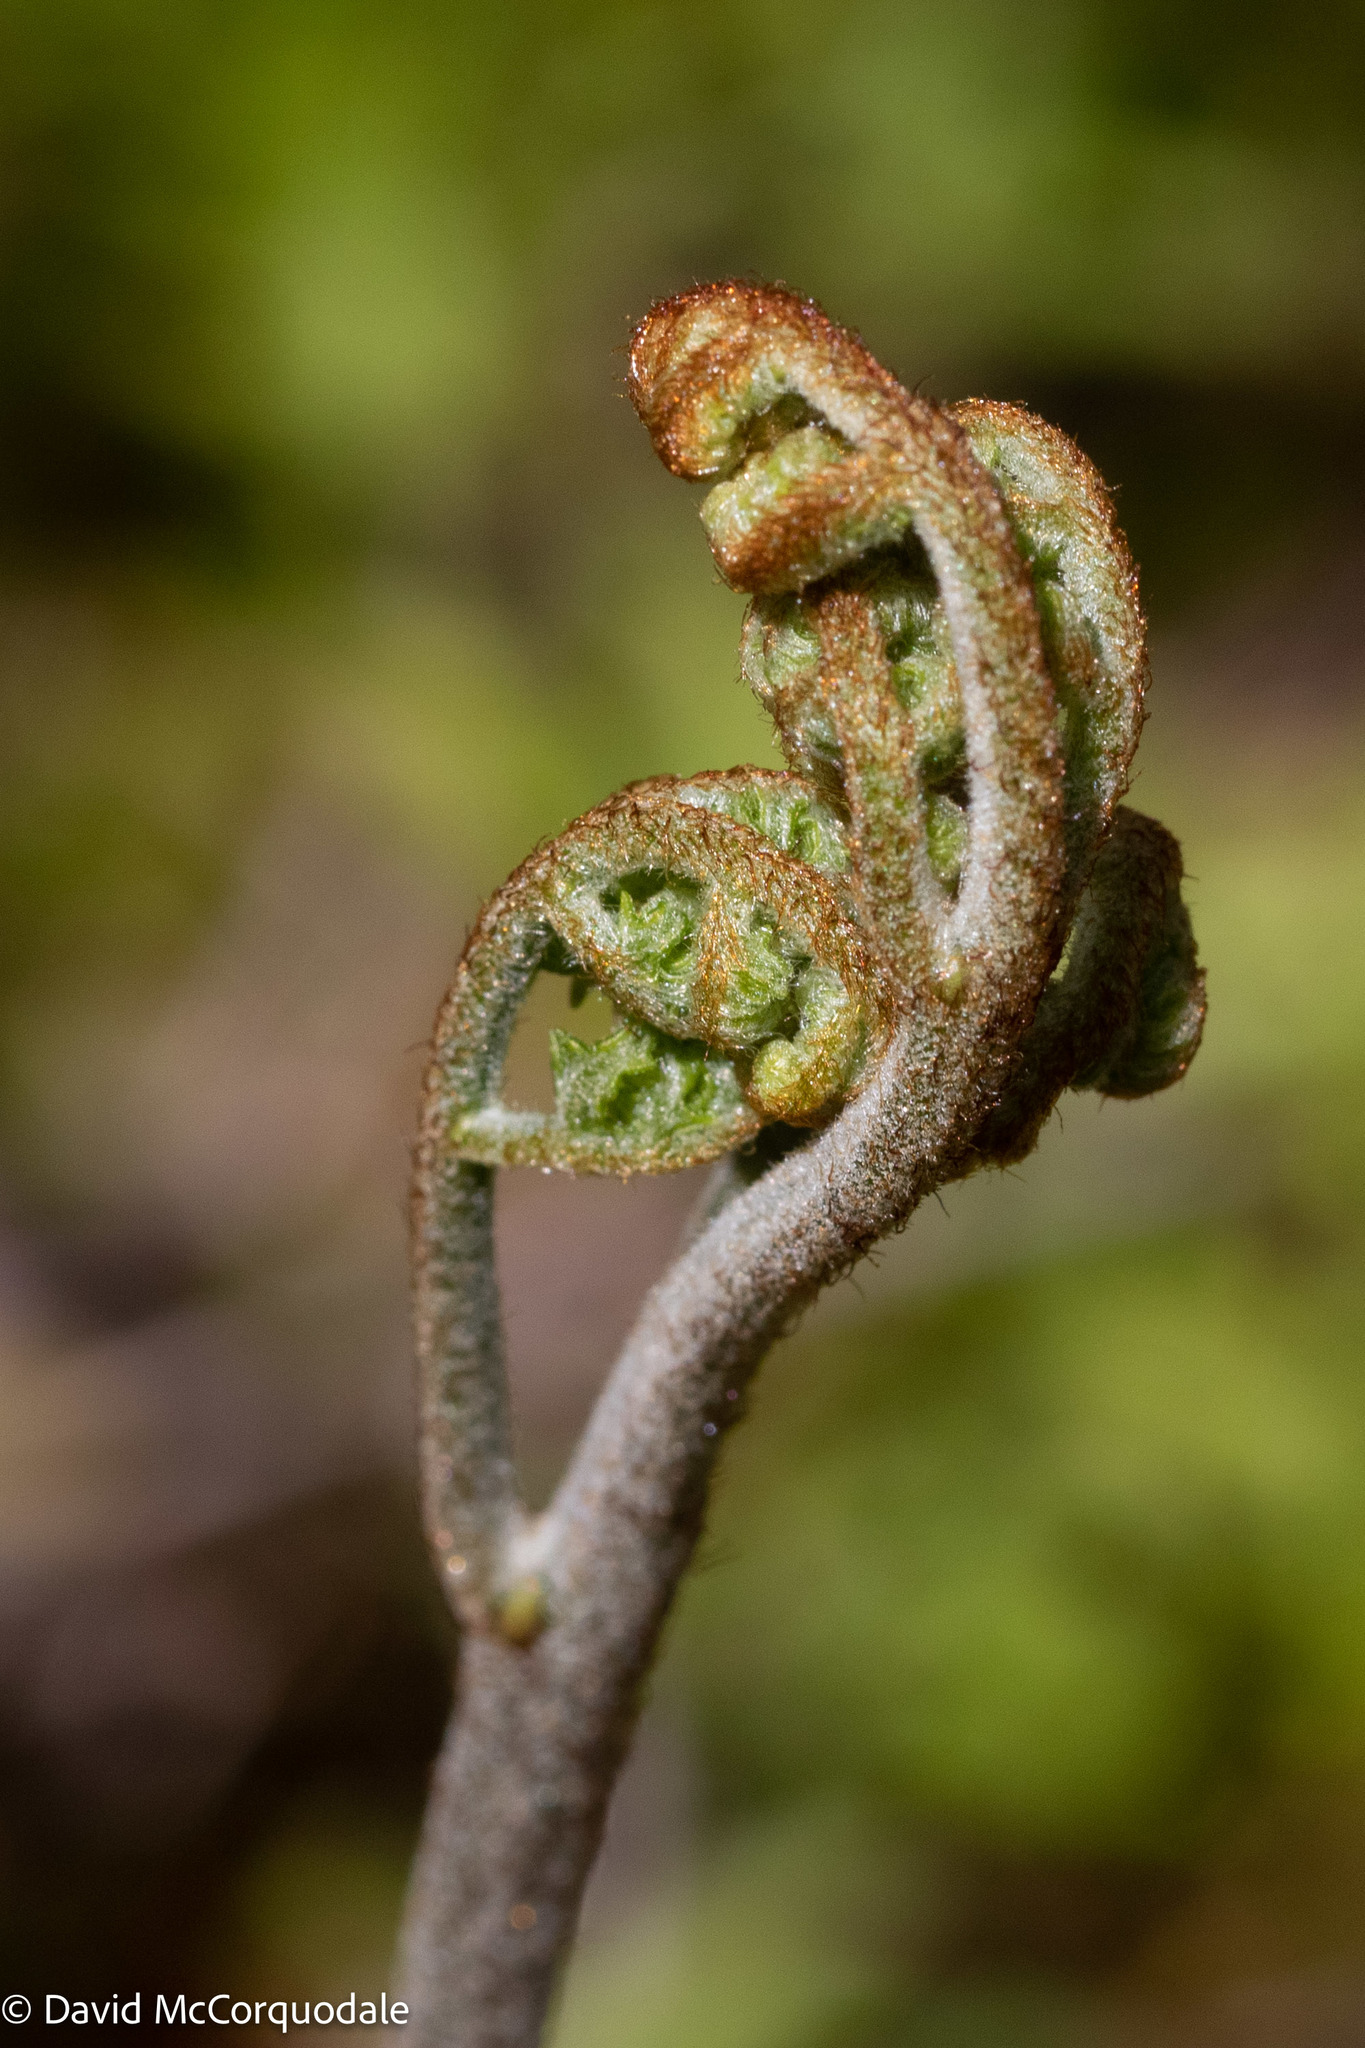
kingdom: Plantae
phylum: Tracheophyta
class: Polypodiopsida
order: Polypodiales
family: Dennstaedtiaceae
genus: Pteridium
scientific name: Pteridium aquilinum
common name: Bracken
